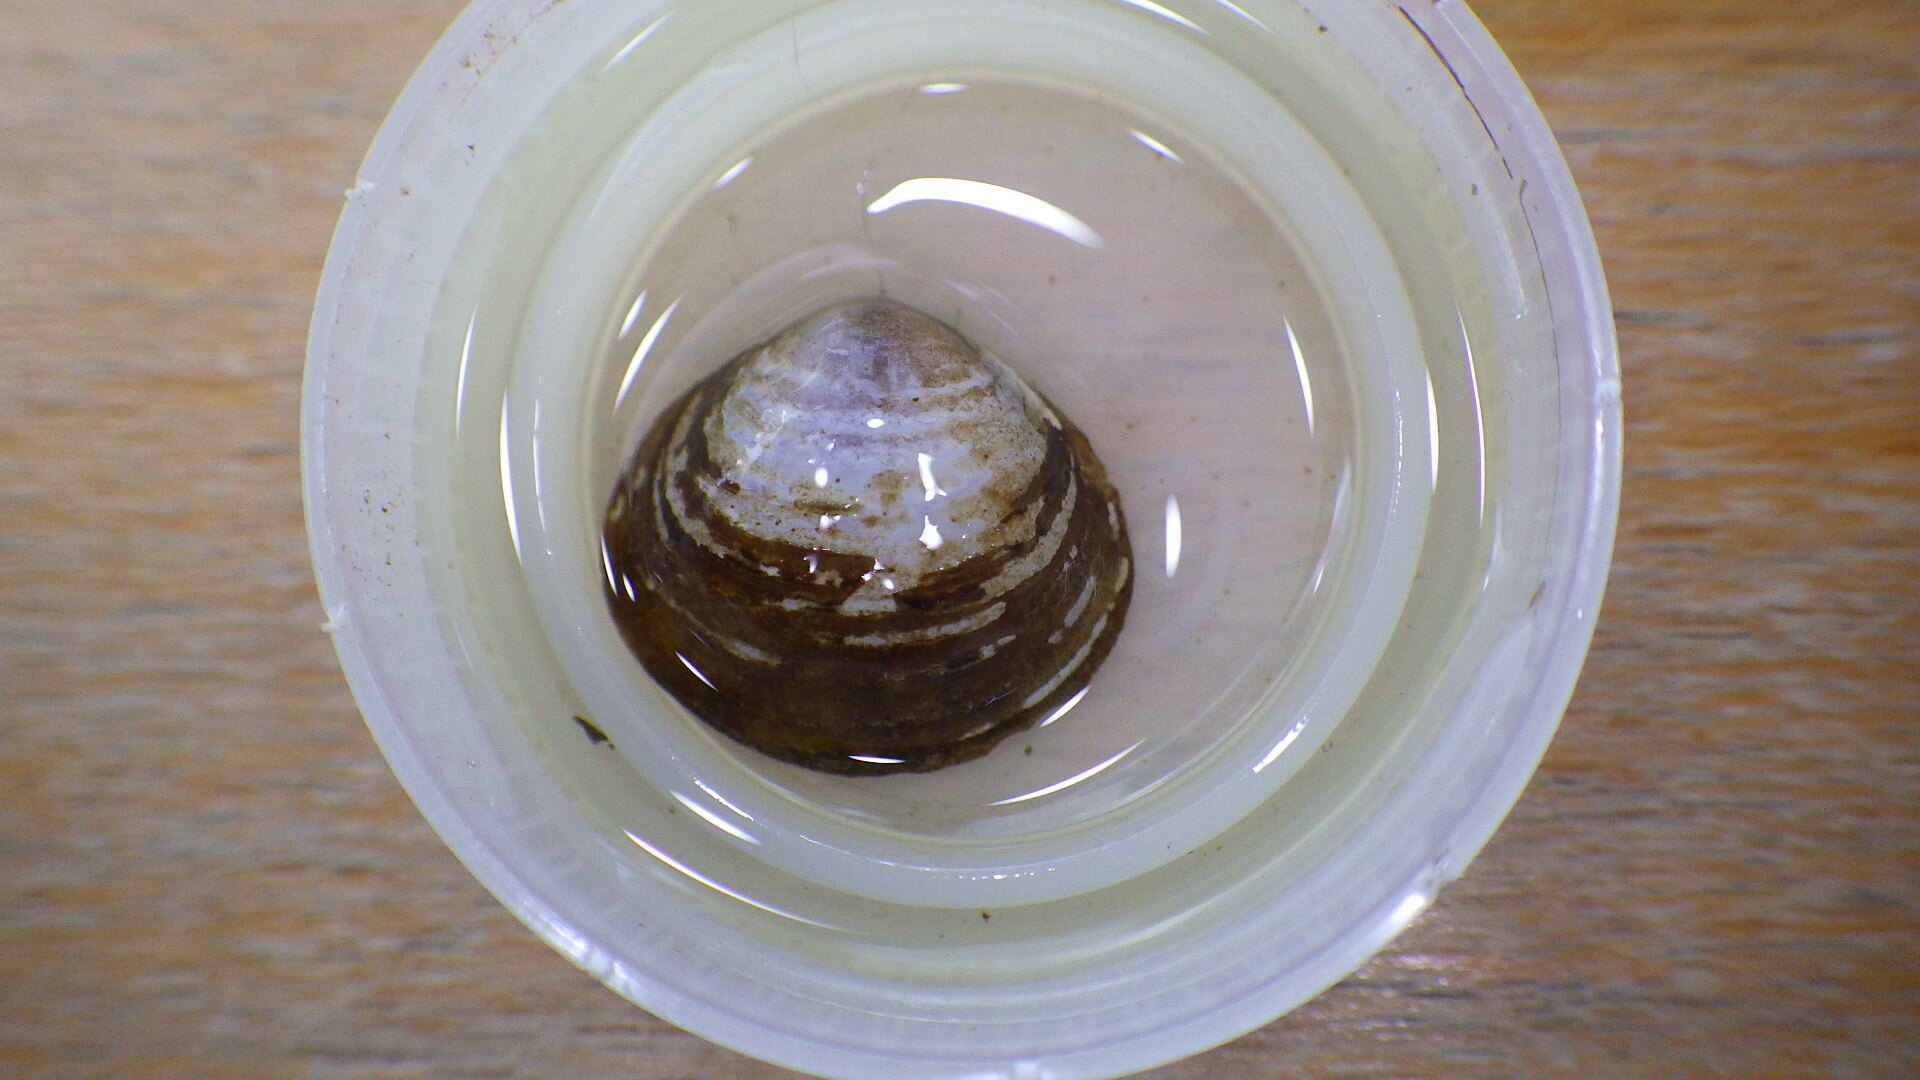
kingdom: Animalia
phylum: Mollusca
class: Bivalvia
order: Venerida
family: Cyrenidae
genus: Corbicula
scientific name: Corbicula fluminea
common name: Asian clam
